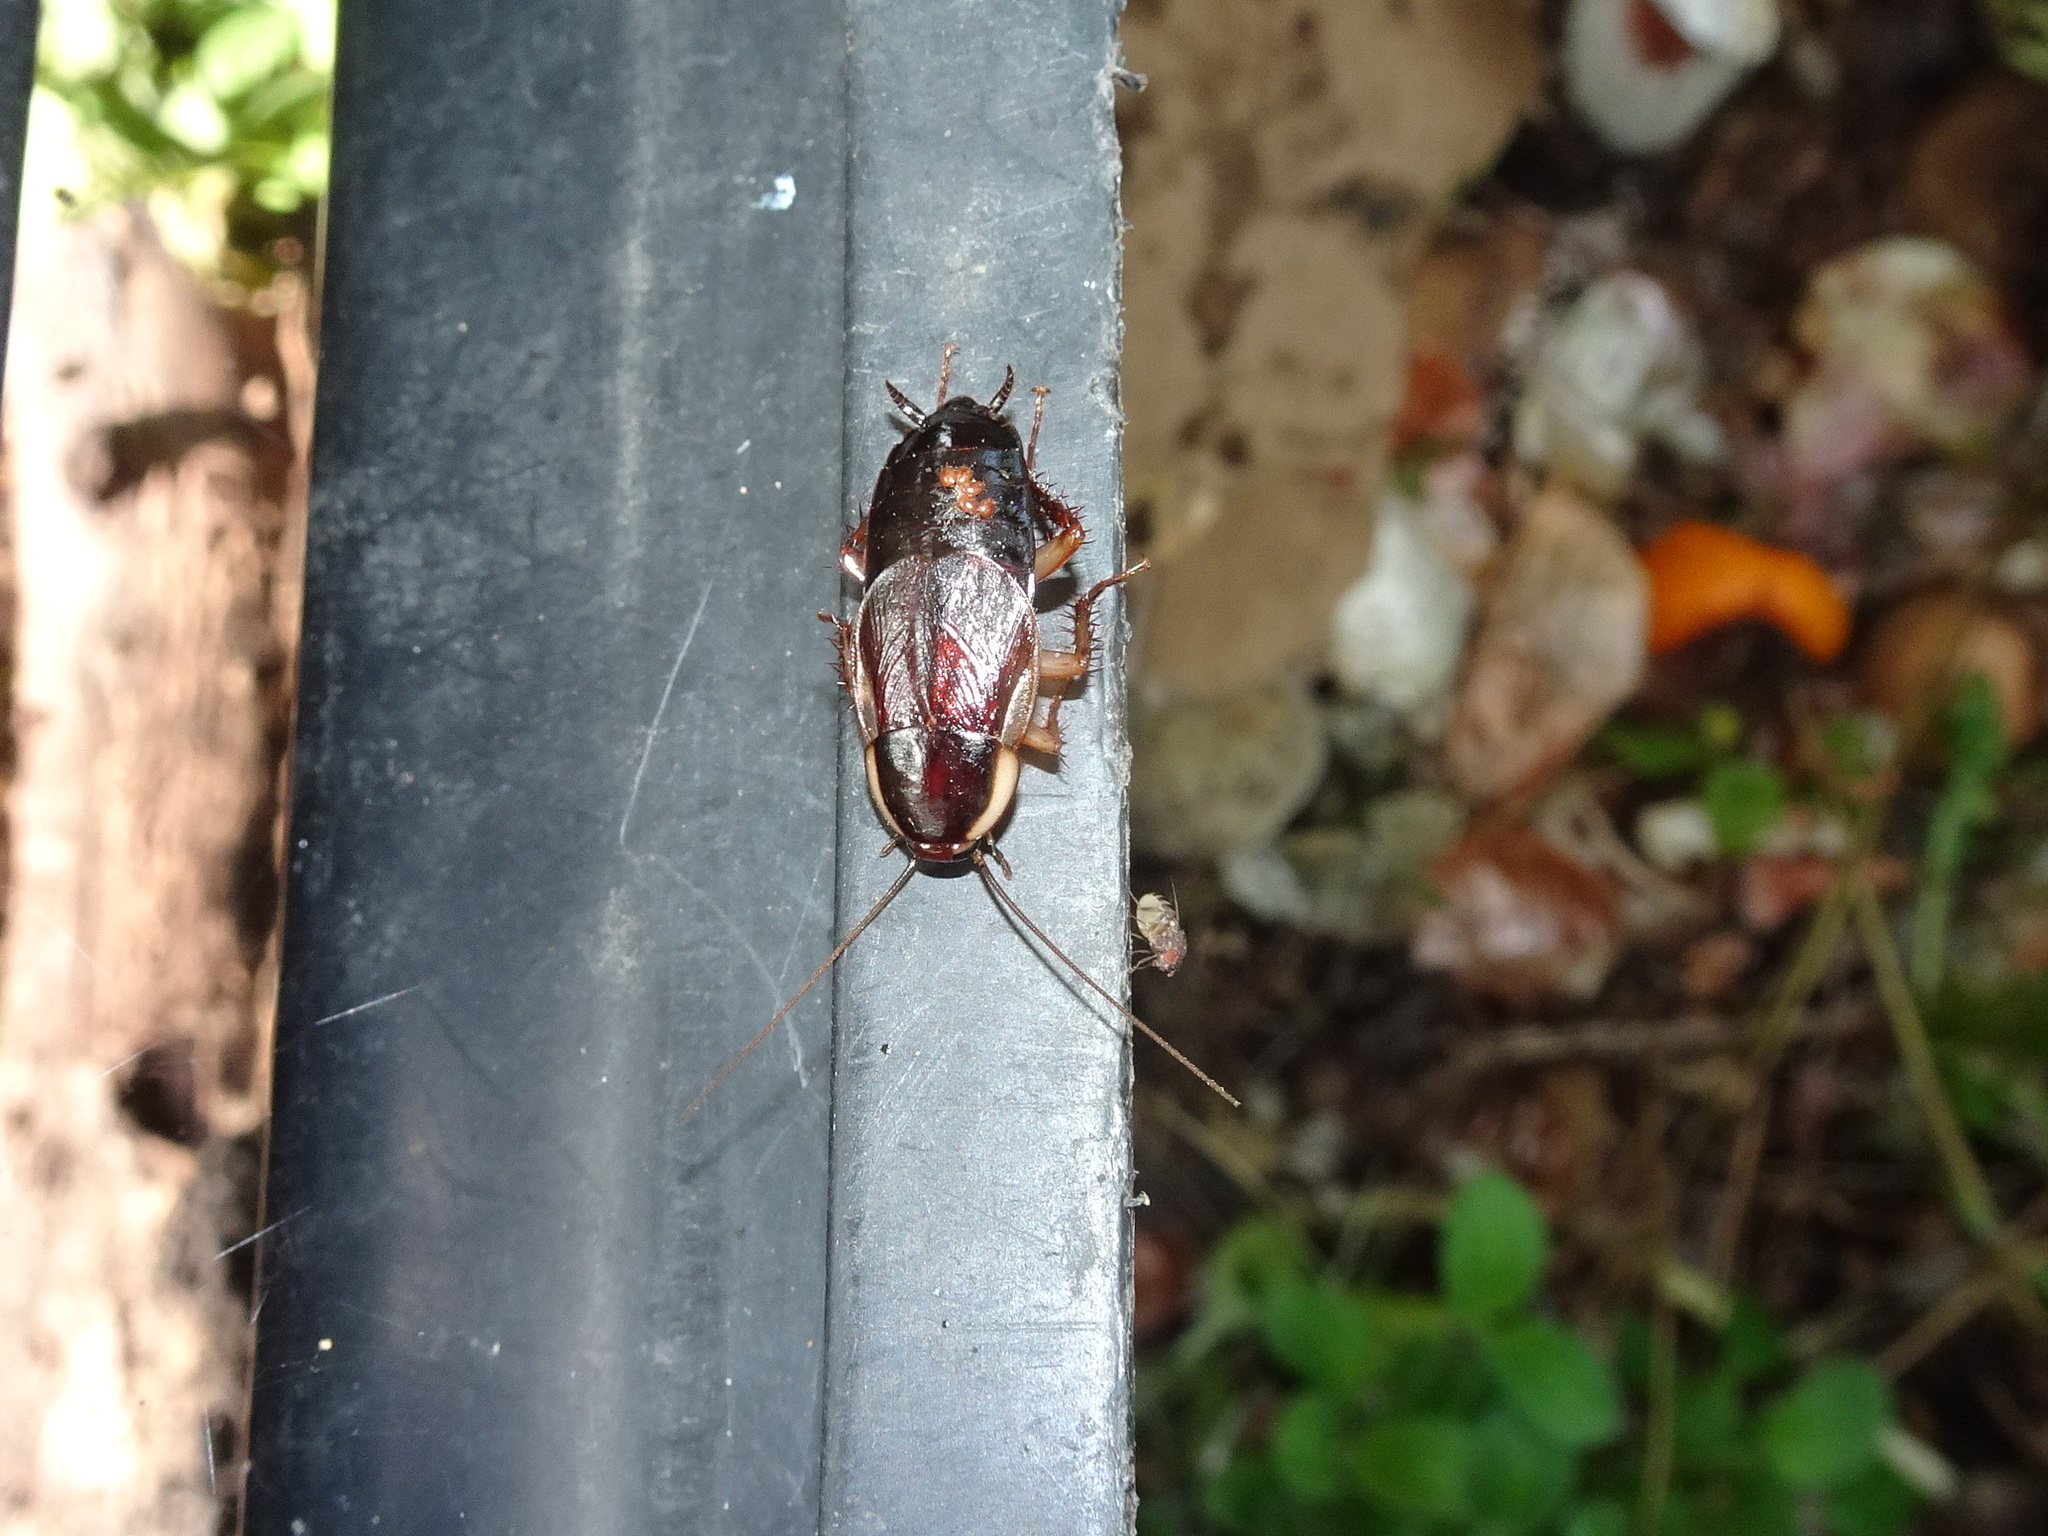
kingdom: Animalia
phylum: Arthropoda
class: Insecta
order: Blattodea
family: Ectobiidae
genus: Parcoblatta
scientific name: Parcoblatta pennsylvanica
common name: Pennsylvanian wood cockroach
